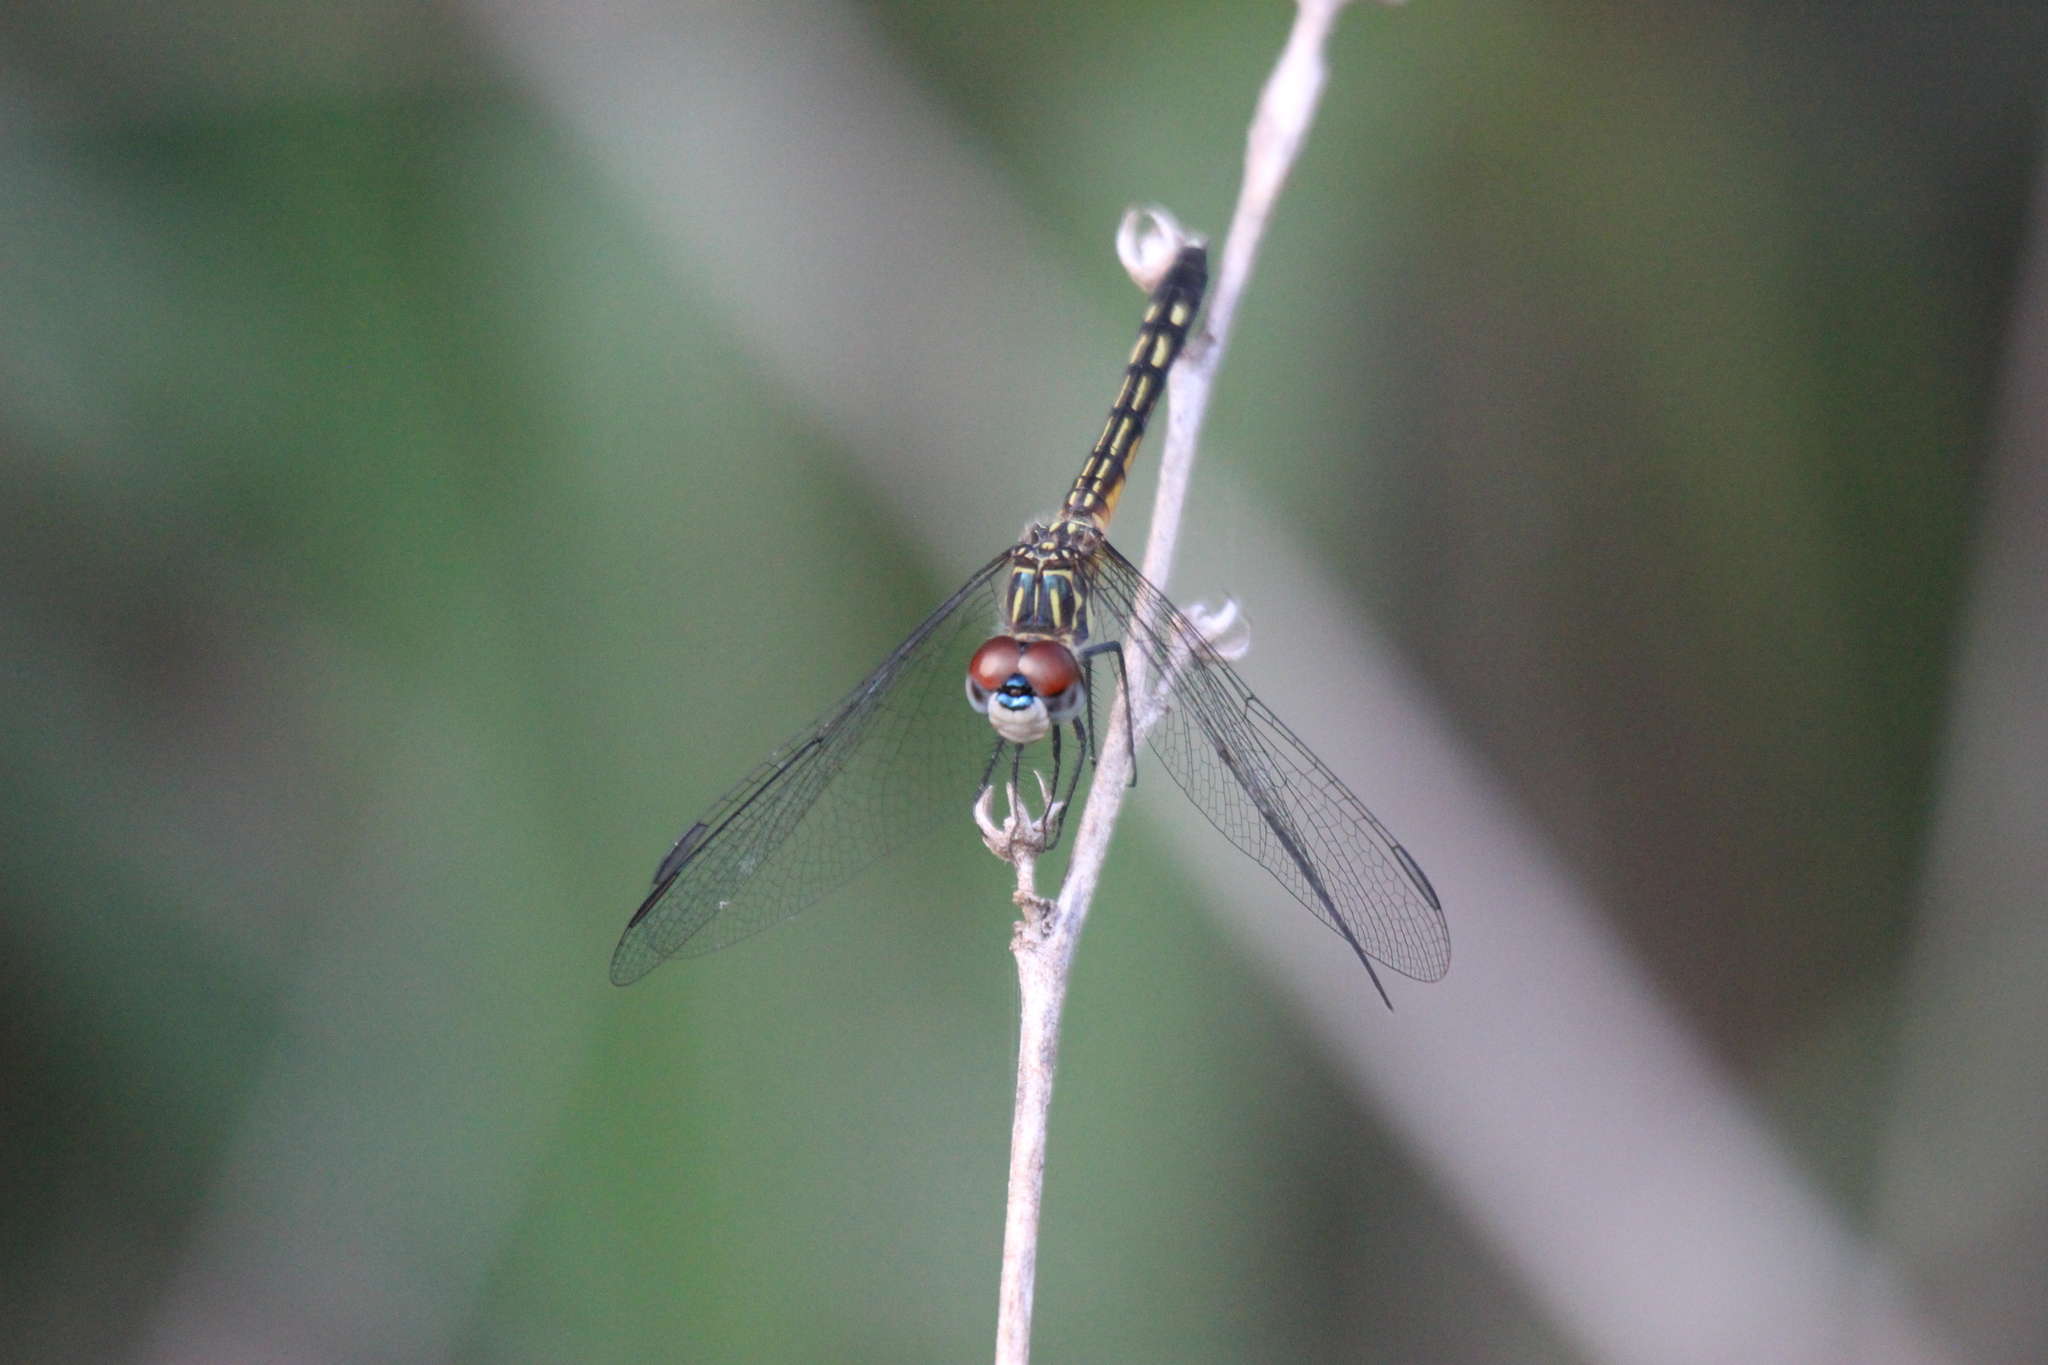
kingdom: Animalia
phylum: Arthropoda
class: Insecta
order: Odonata
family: Libellulidae
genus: Pachydiplax
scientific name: Pachydiplax longipennis
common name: Blue dasher
